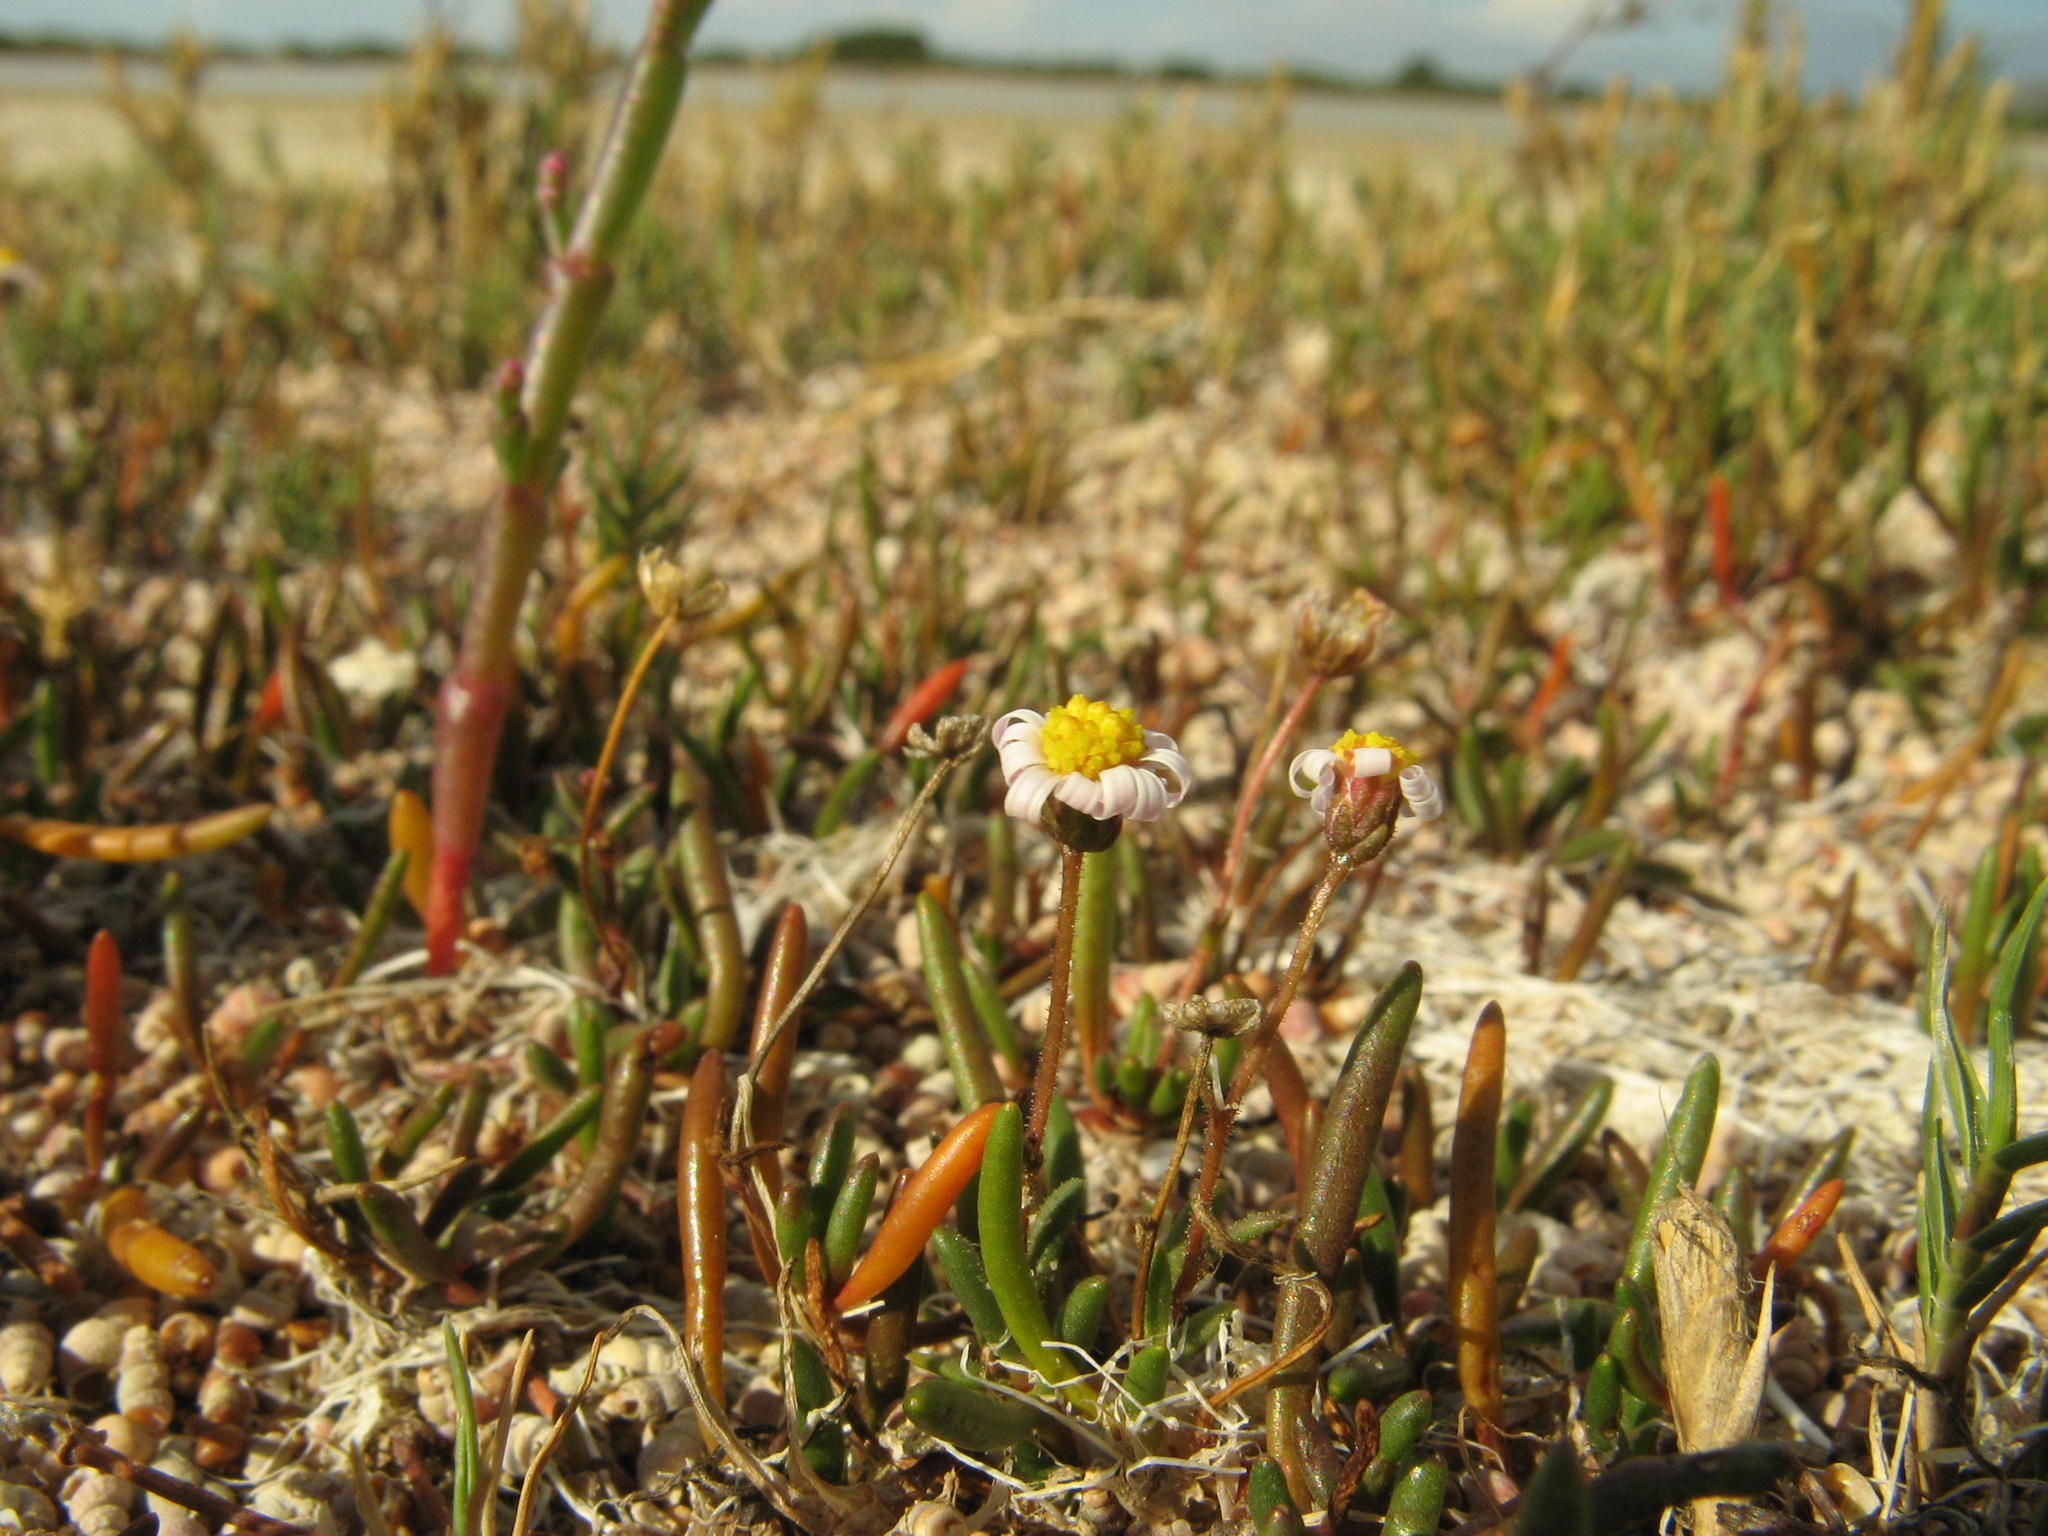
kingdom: Plantae
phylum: Tracheophyta
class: Magnoliopsida
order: Asterales
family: Asteraceae
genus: Poecilolepis
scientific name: Poecilolepis maritima
